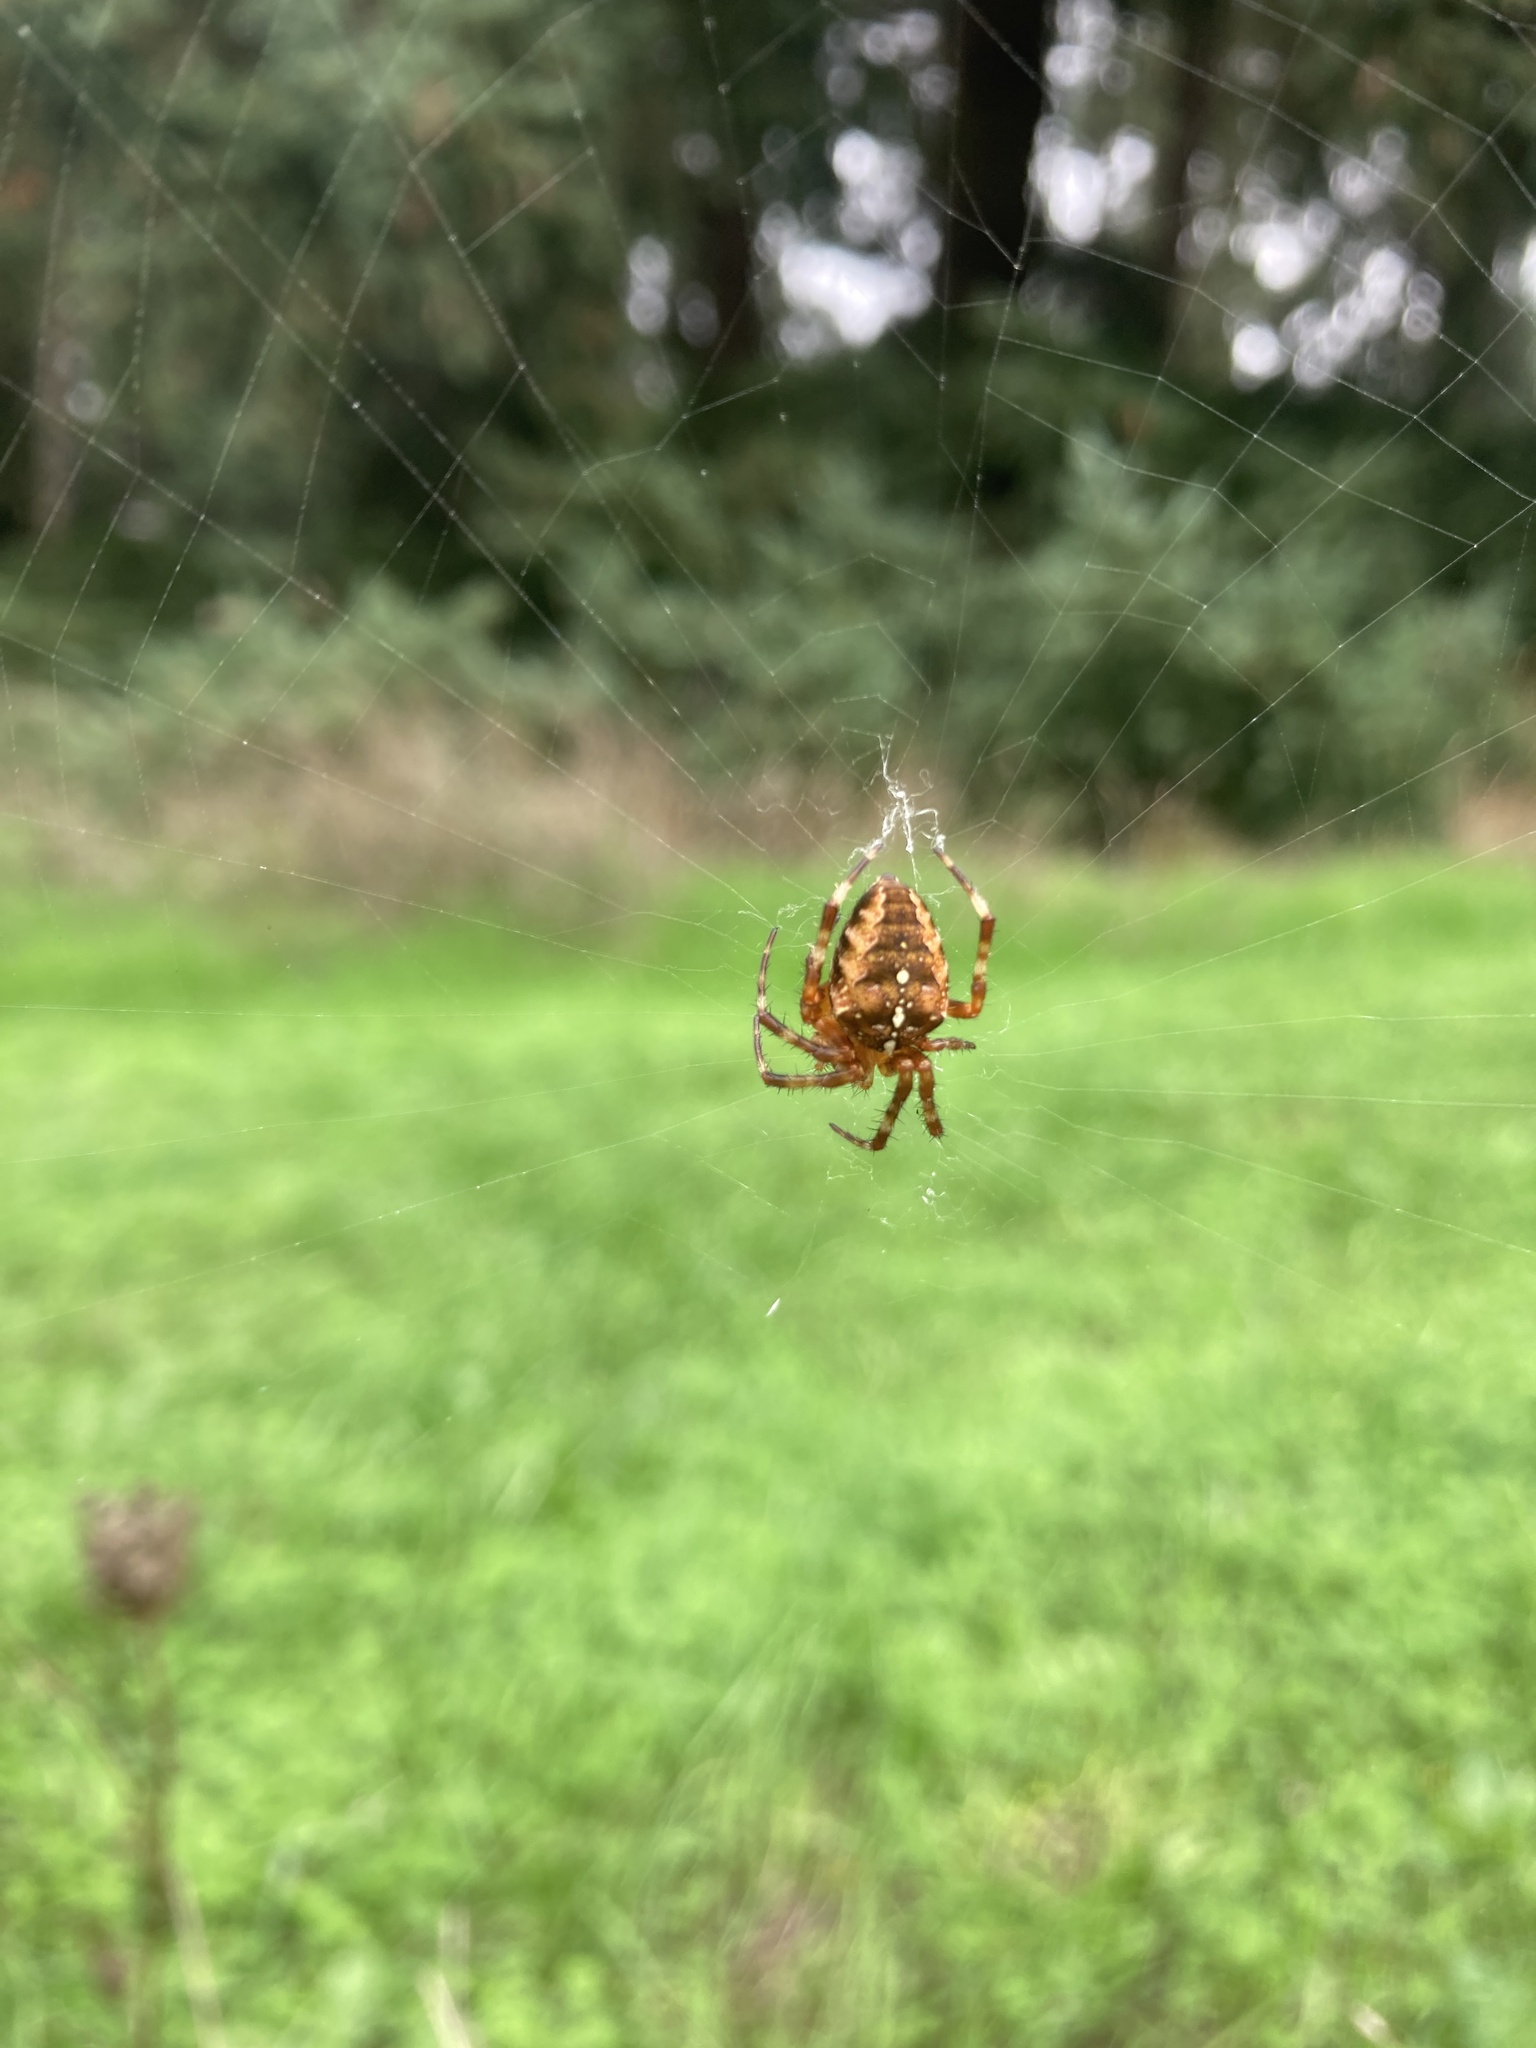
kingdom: Animalia
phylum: Arthropoda
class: Arachnida
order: Araneae
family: Araneidae
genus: Araneus
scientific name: Araneus diadematus
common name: Cross orbweaver
